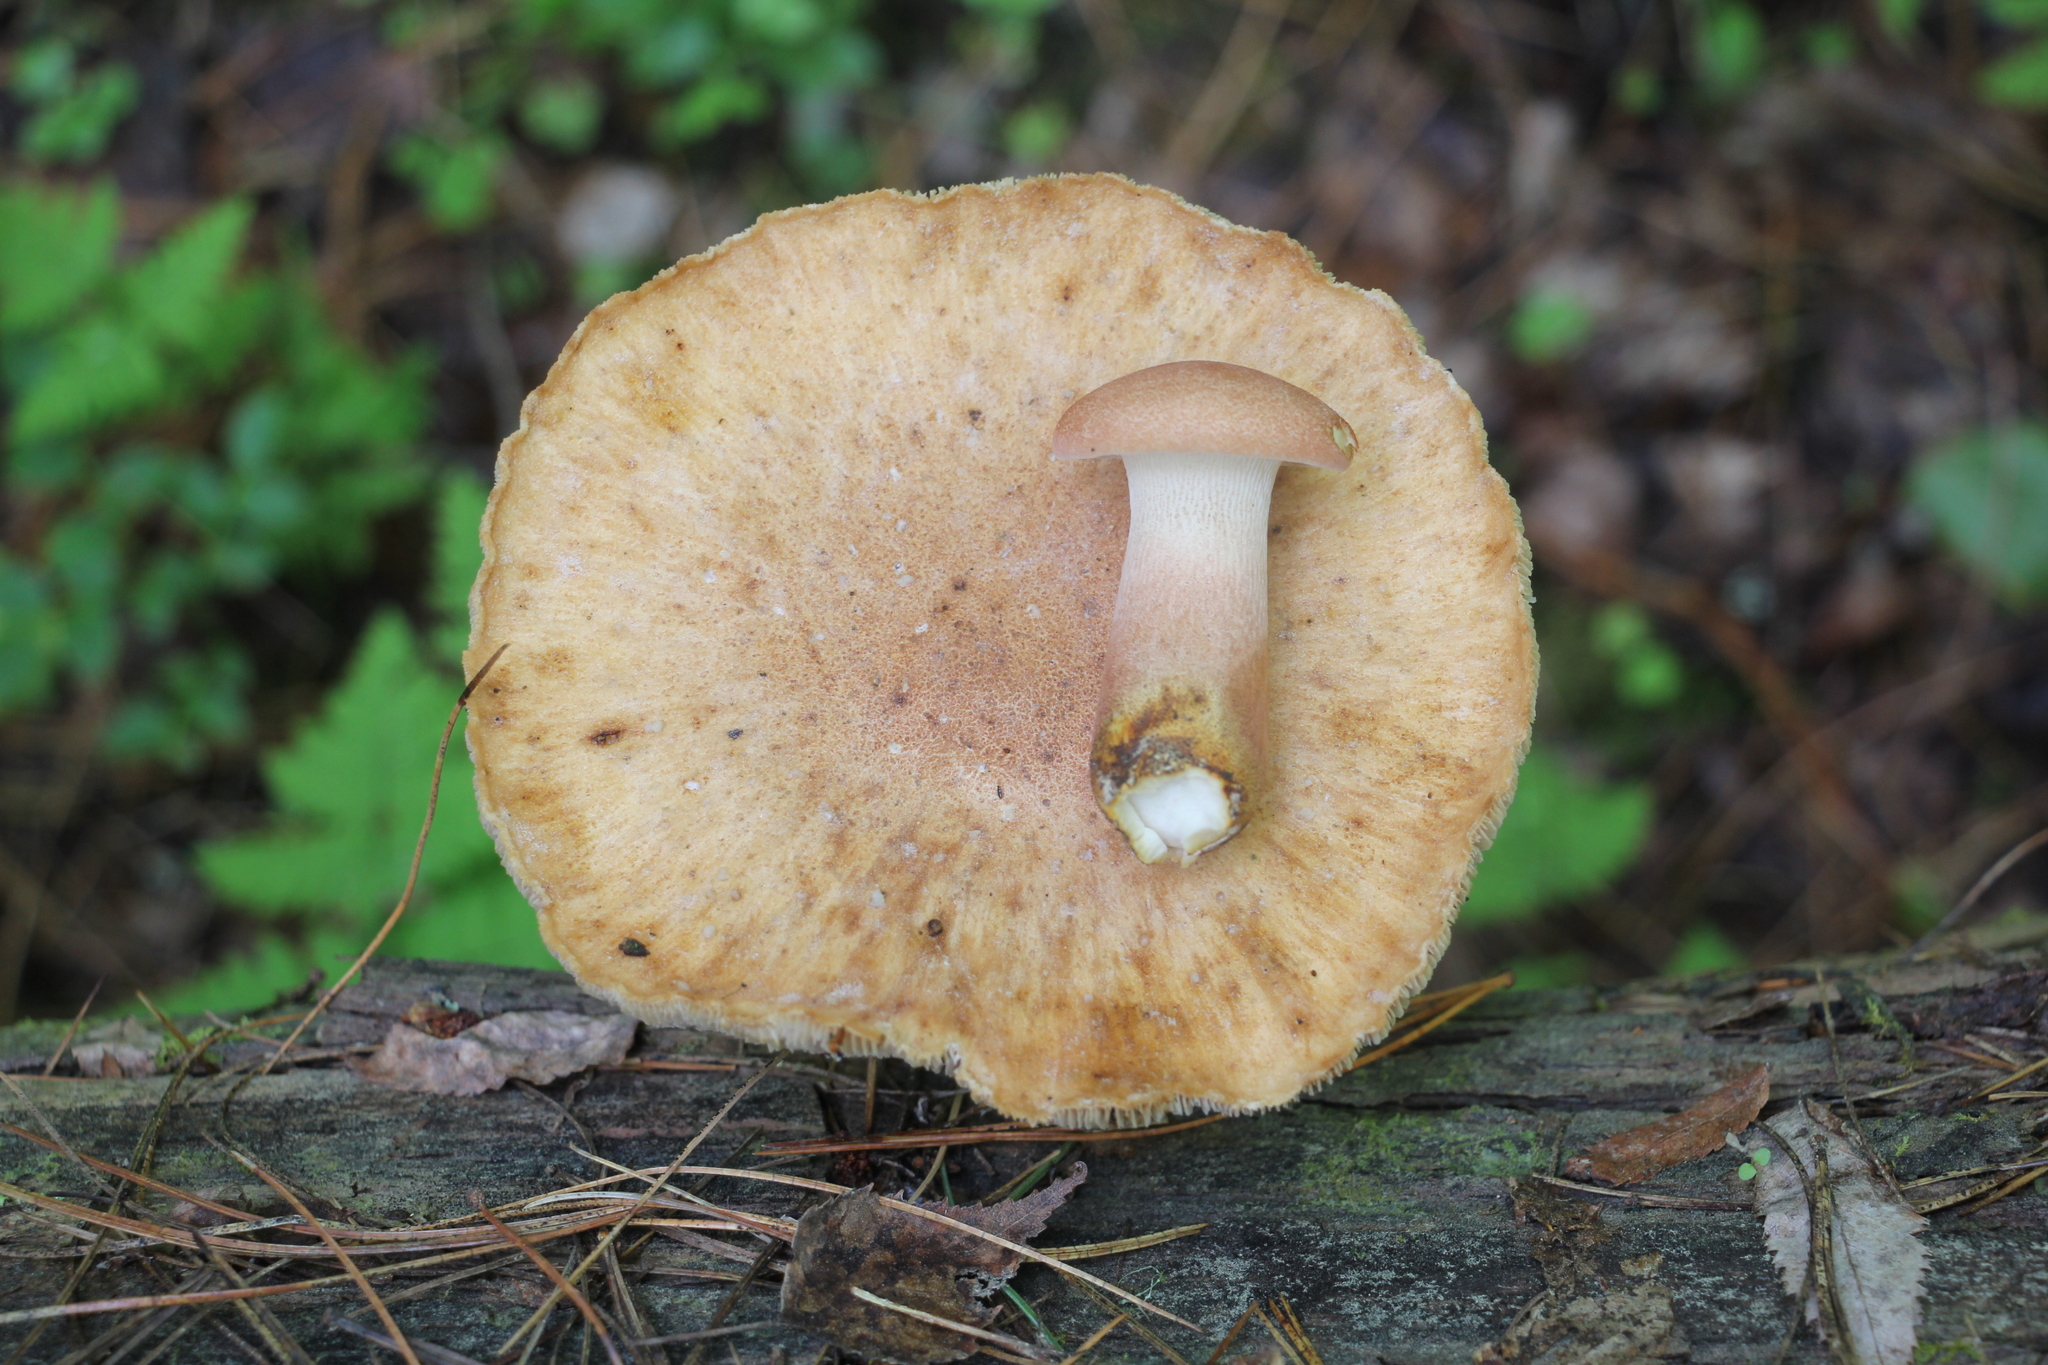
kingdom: Fungi
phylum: Basidiomycota
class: Agaricomycetes
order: Gloeophyllales
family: Gloeophyllaceae
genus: Neolentinus
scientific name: Neolentinus cyathiformis
